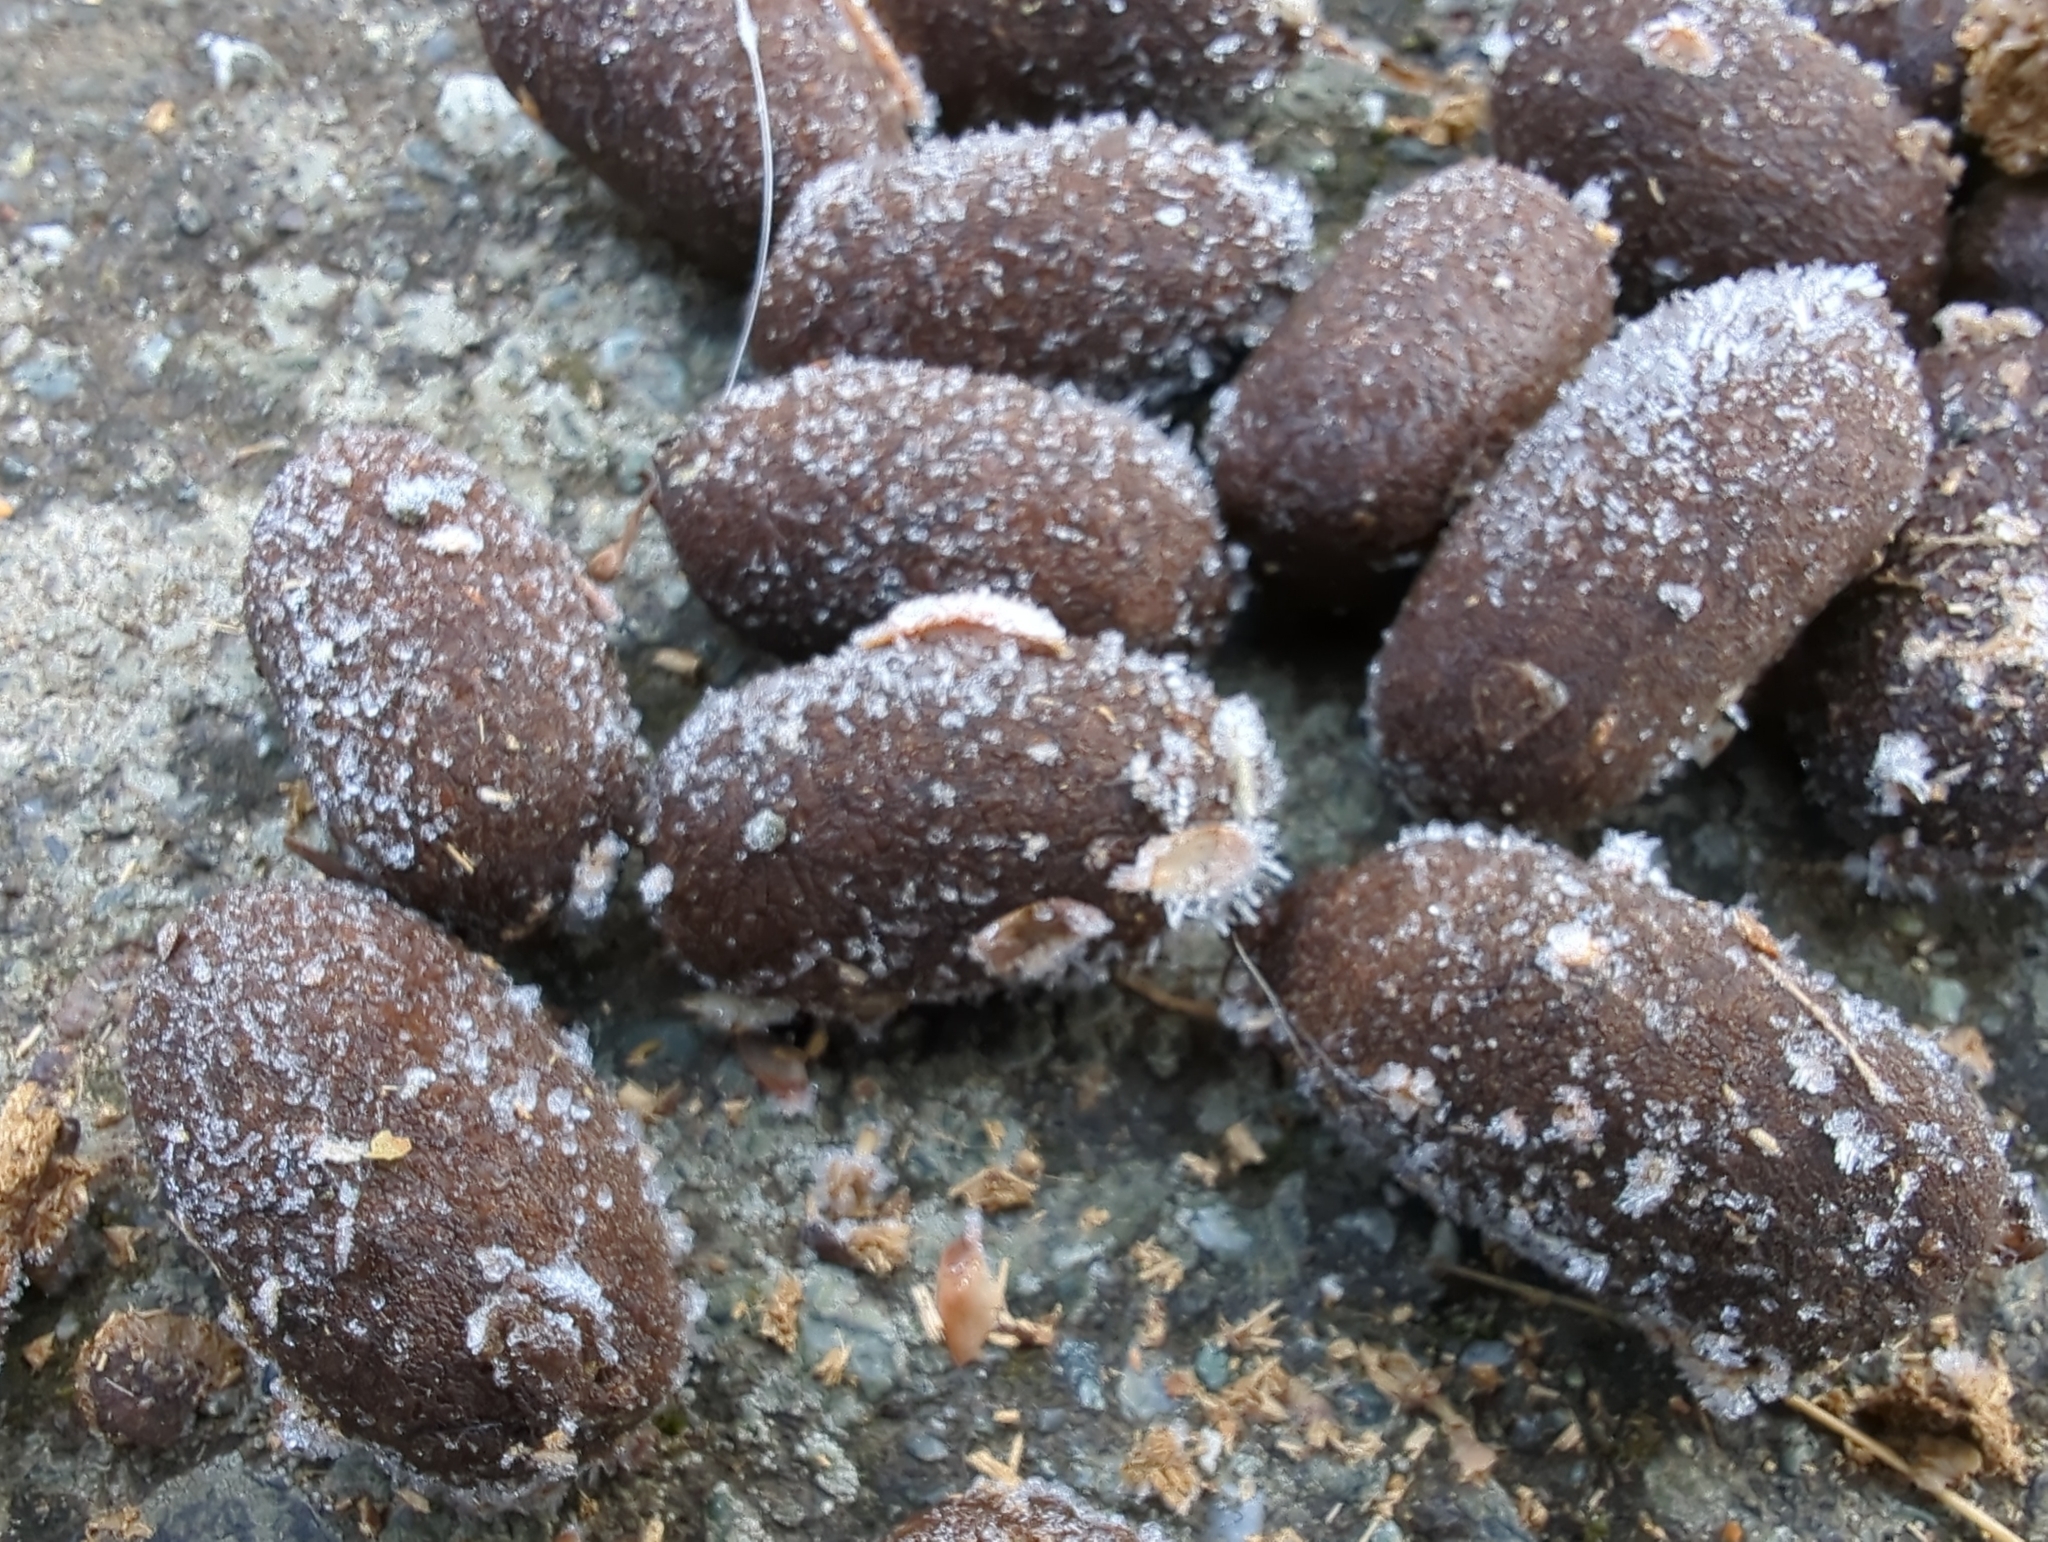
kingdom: Animalia
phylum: Chordata
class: Mammalia
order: Artiodactyla
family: Cervidae
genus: Alces
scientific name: Alces alces
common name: Moose
